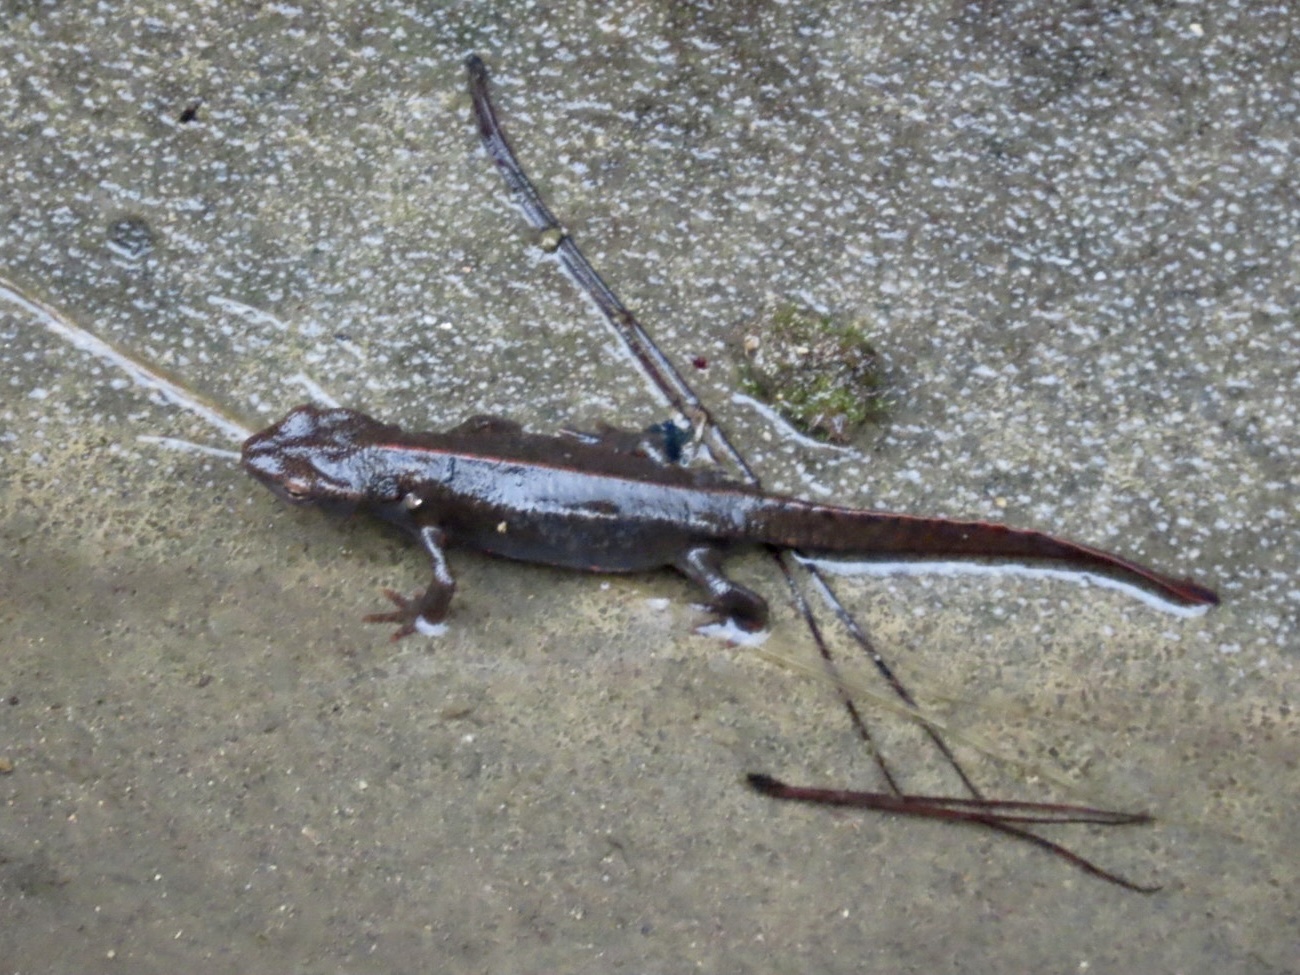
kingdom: Animalia
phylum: Chordata
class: Amphibia
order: Caudata
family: Salamandridae
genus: Paramesotriton
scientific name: Paramesotriton hongkongensis
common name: Hong kong warty newt
